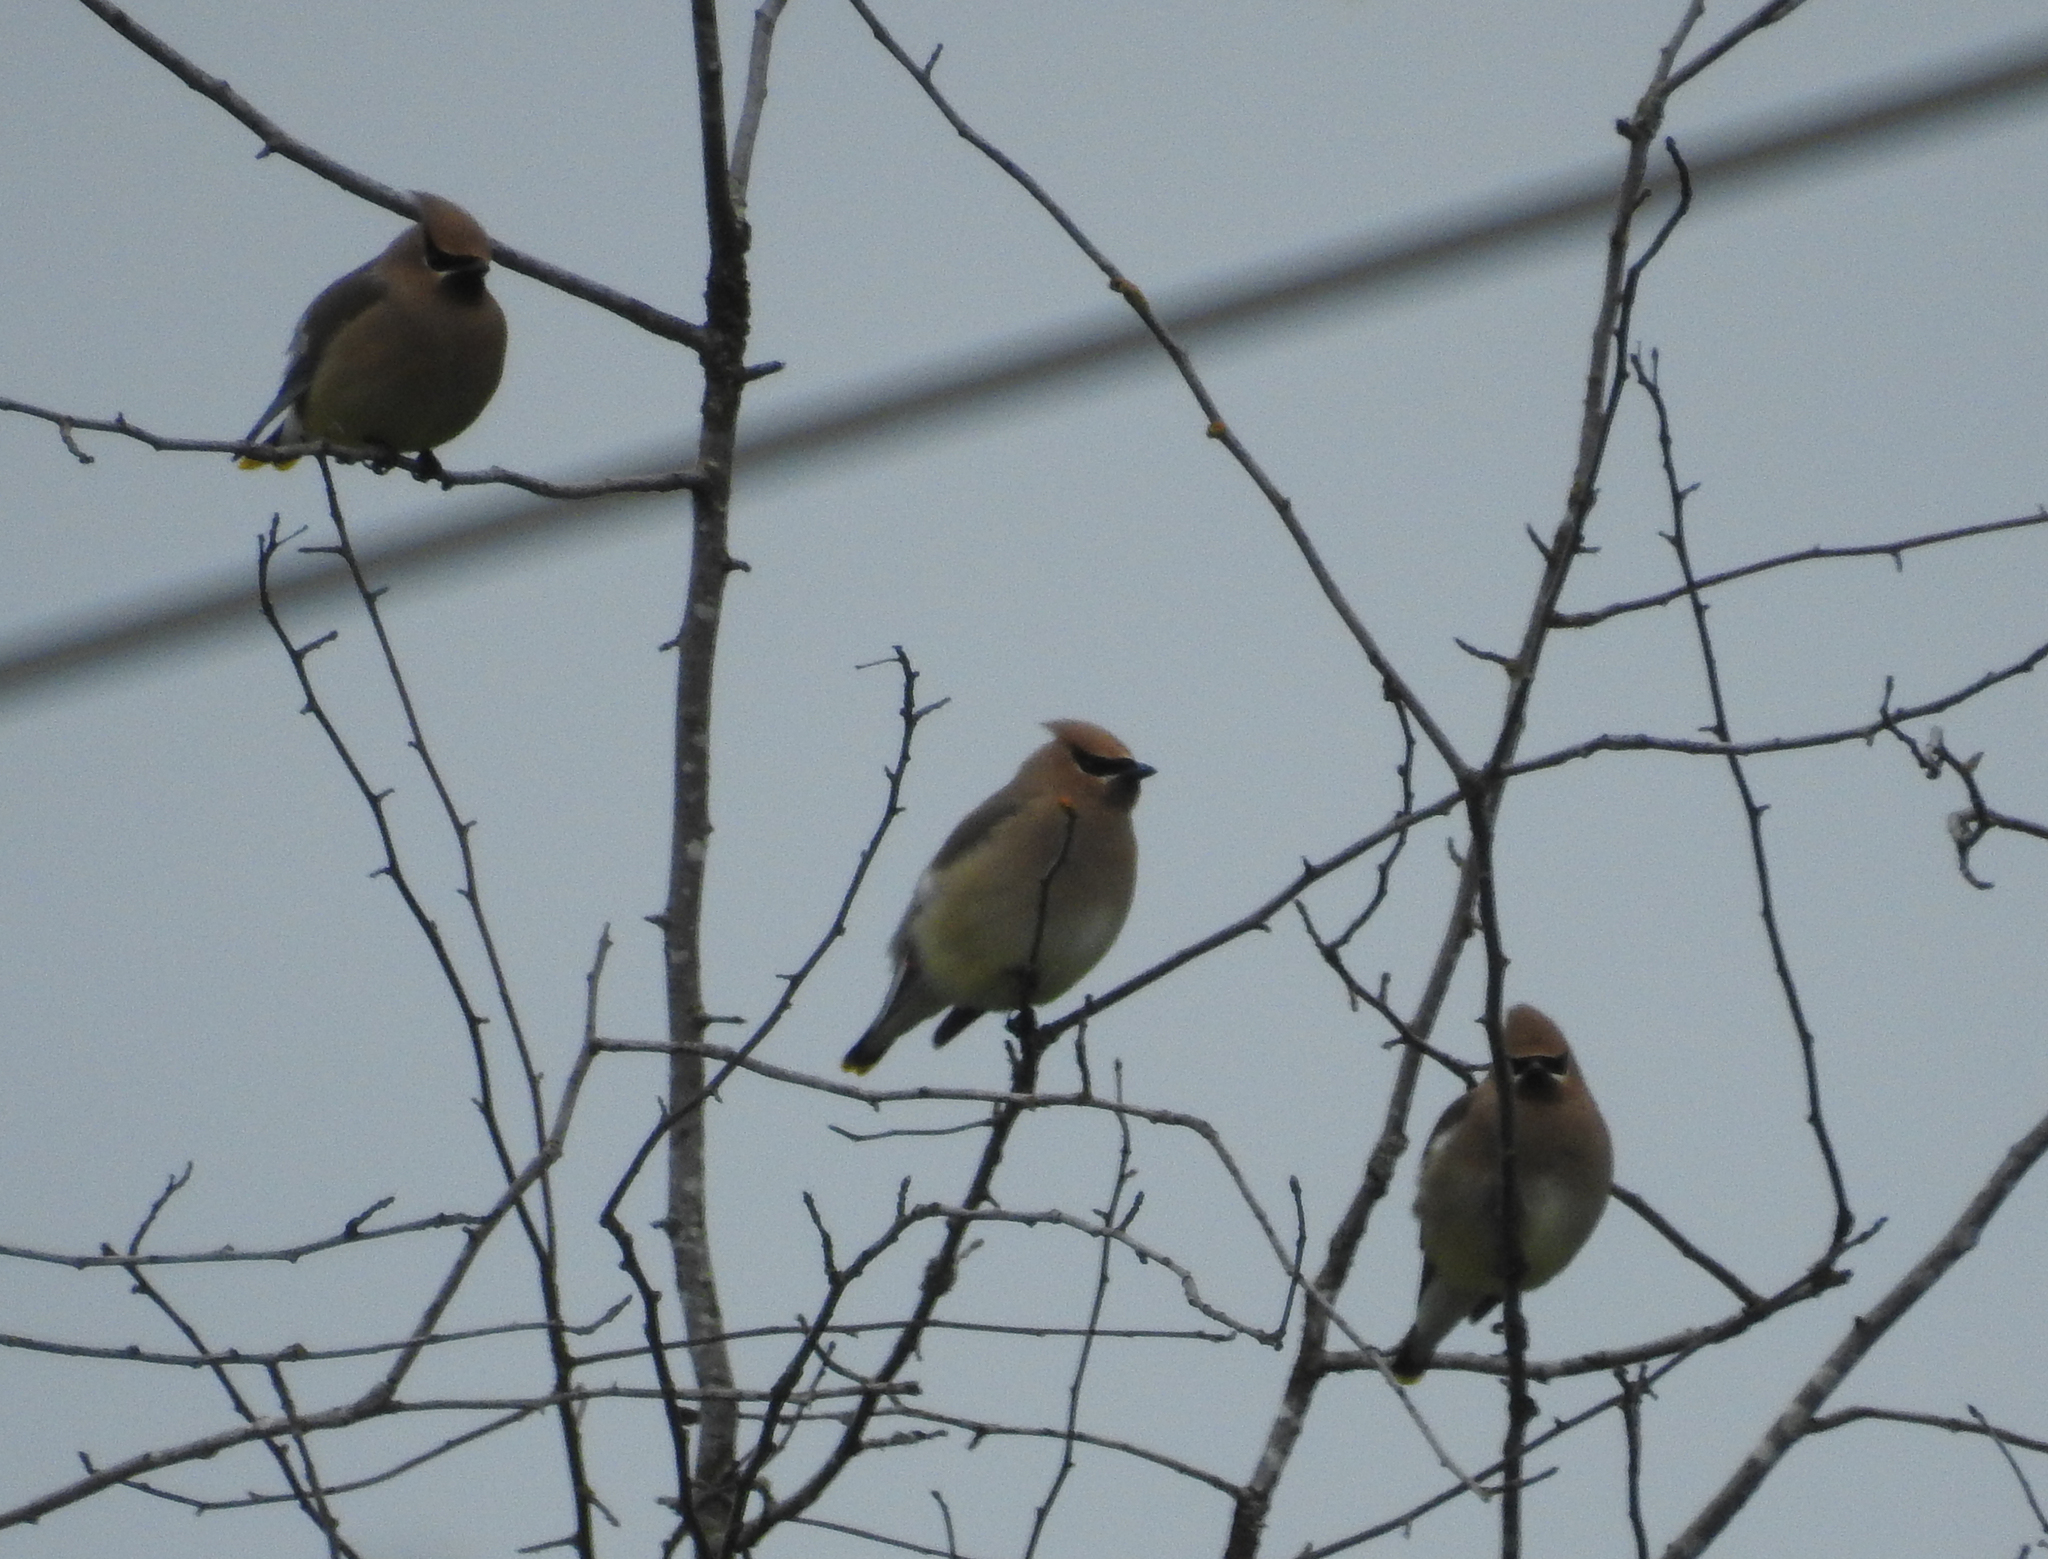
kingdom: Animalia
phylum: Chordata
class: Aves
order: Passeriformes
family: Bombycillidae
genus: Bombycilla
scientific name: Bombycilla cedrorum
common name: Cedar waxwing
